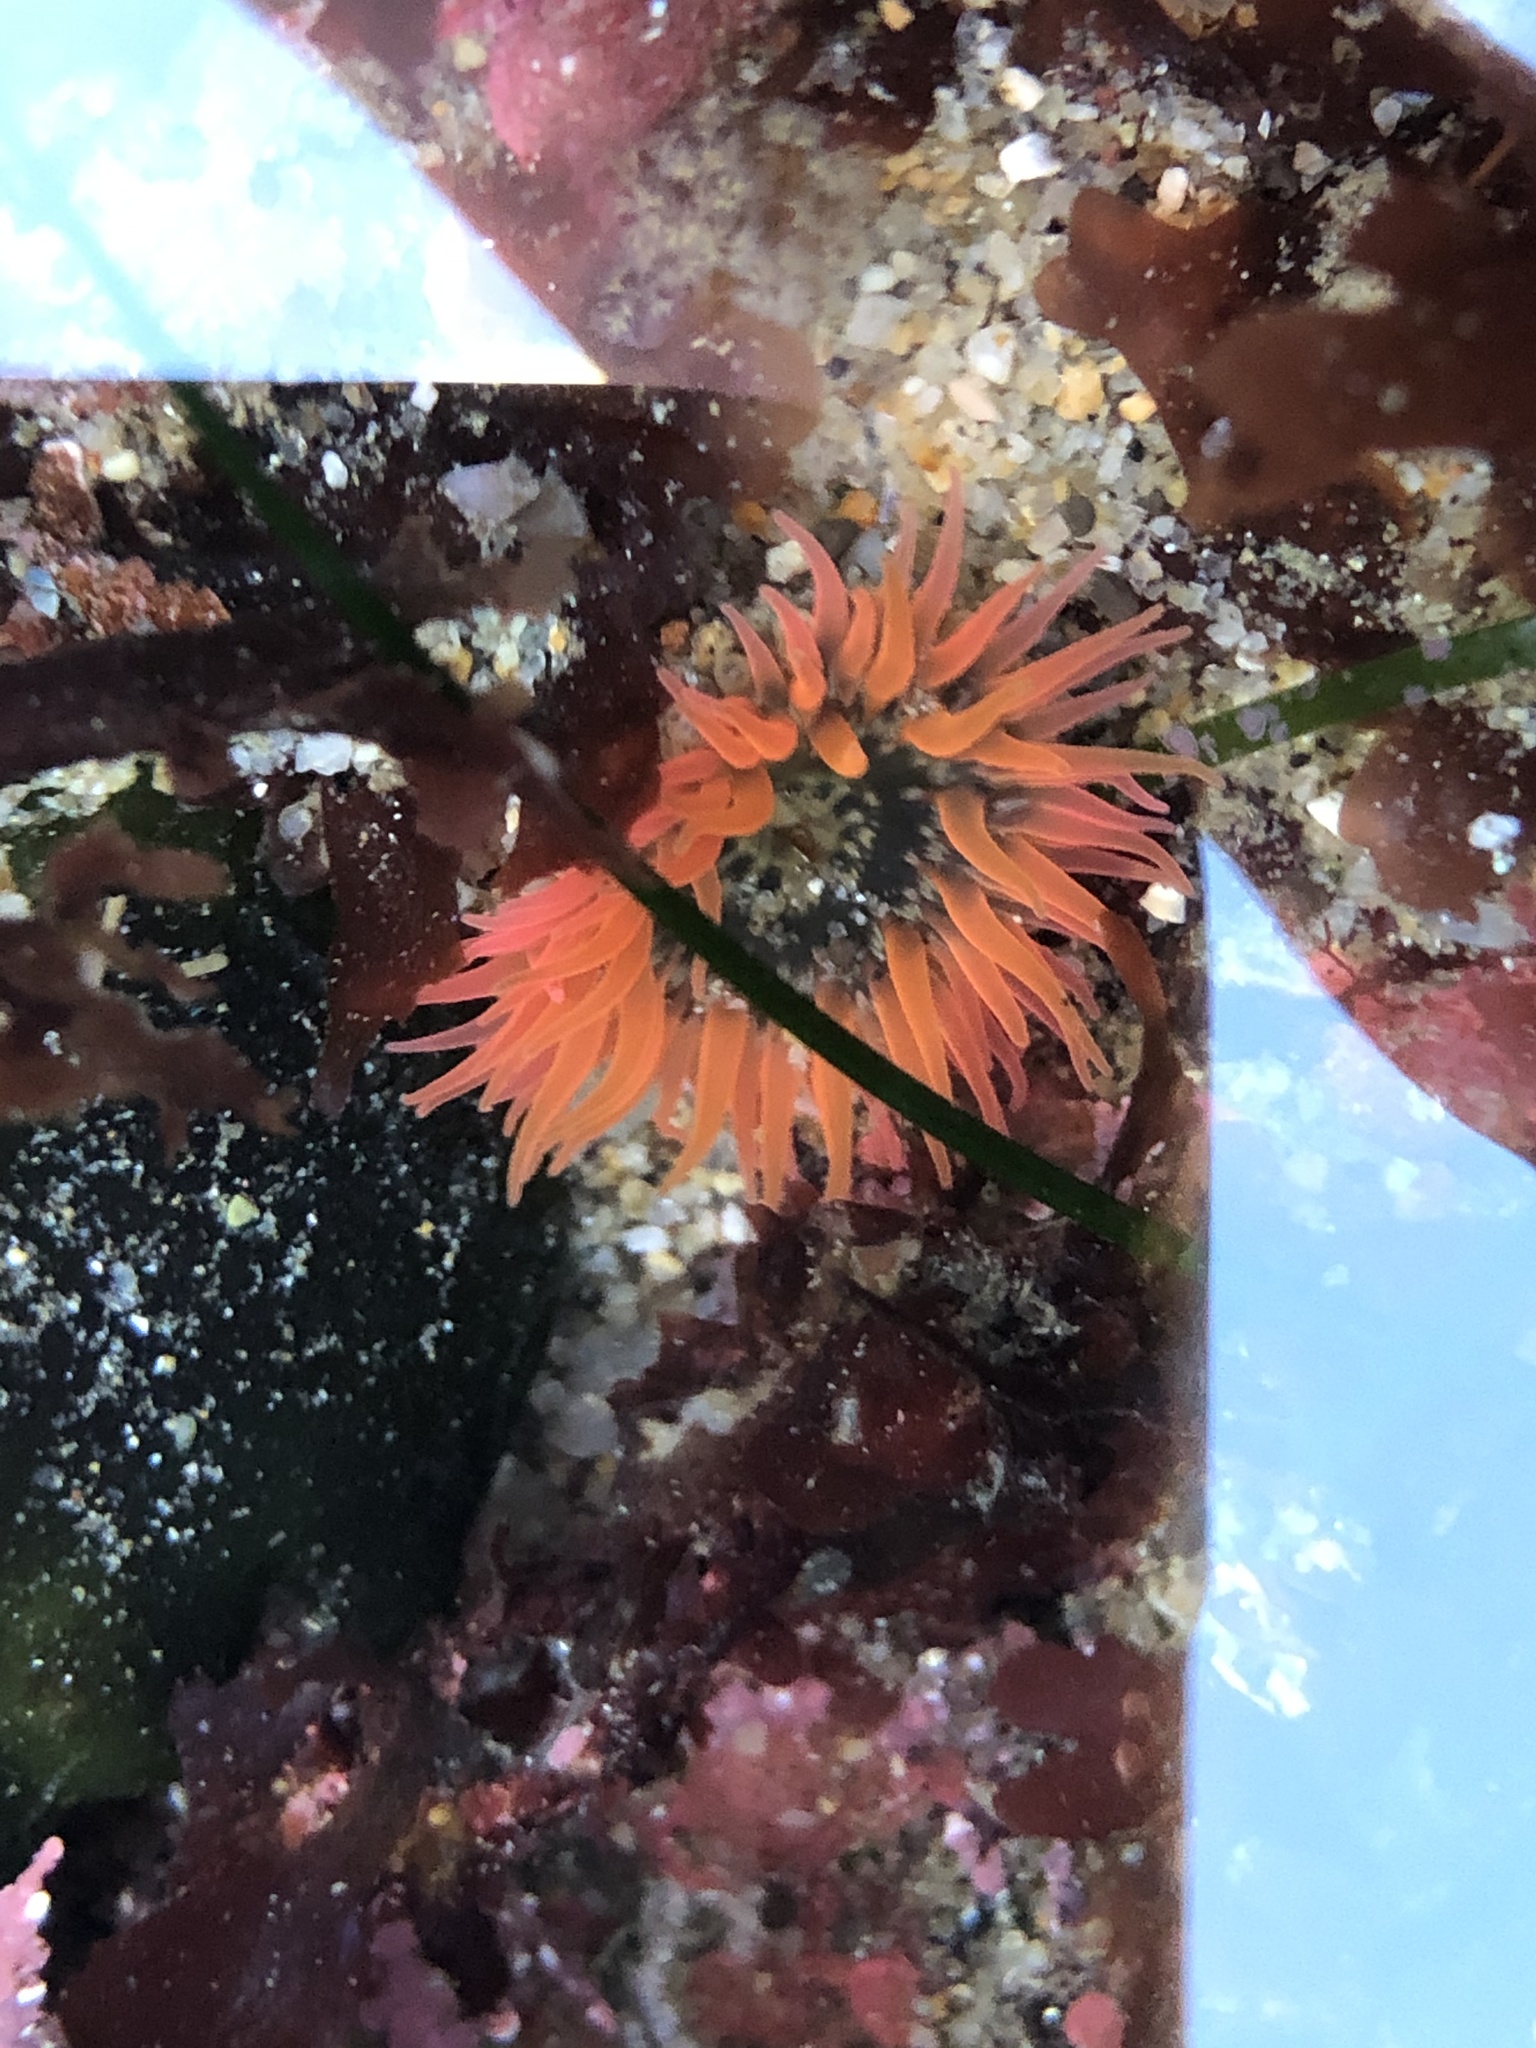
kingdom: Animalia
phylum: Cnidaria
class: Anthozoa
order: Actiniaria
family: Actiniidae
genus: Anthopleura
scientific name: Anthopleura artemisia
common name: Buried sea anemone
